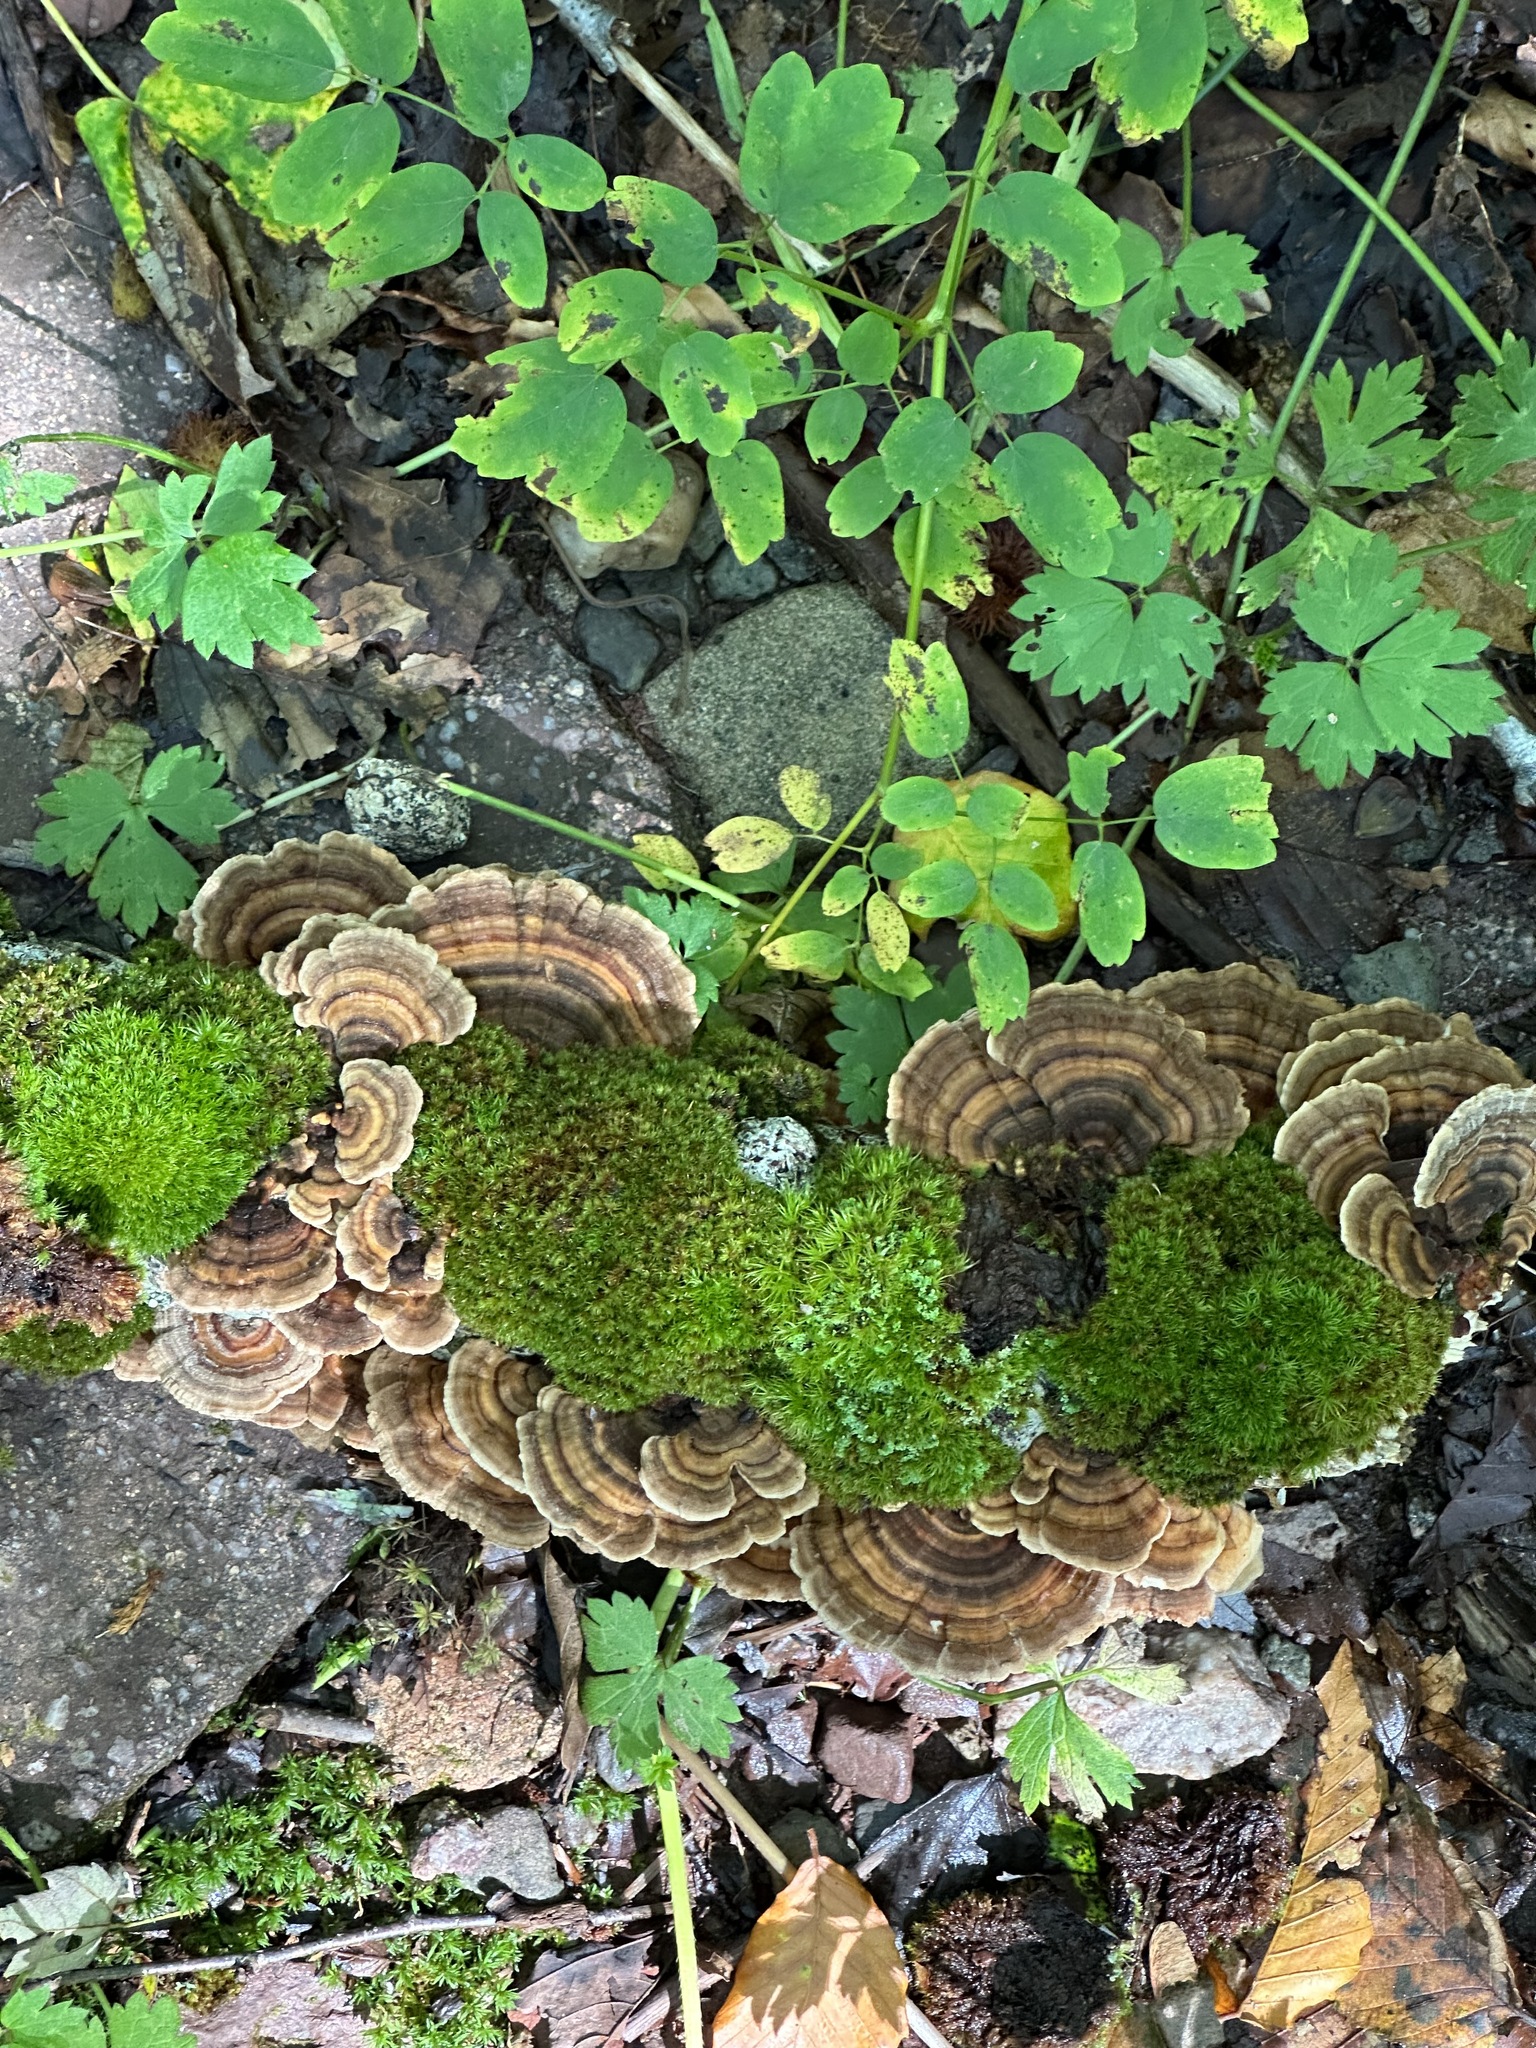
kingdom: Fungi
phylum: Basidiomycota
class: Agaricomycetes
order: Polyporales
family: Polyporaceae
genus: Trametes
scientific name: Trametes versicolor
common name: Turkeytail
